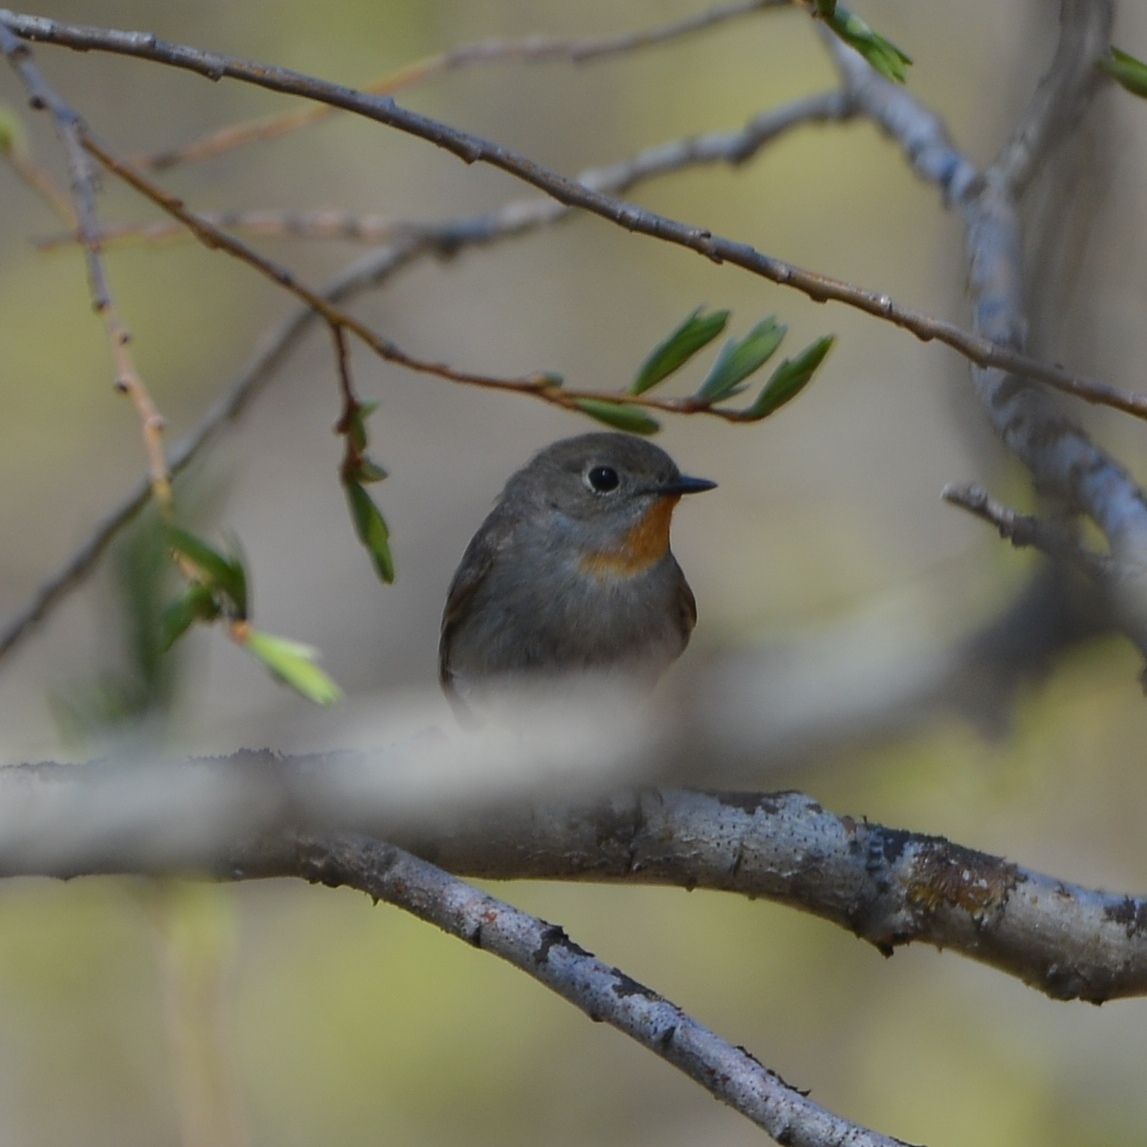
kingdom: Animalia
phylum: Chordata
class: Aves
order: Passeriformes
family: Muscicapidae
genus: Ficedula
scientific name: Ficedula albicilla
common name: Taiga flycatcher
